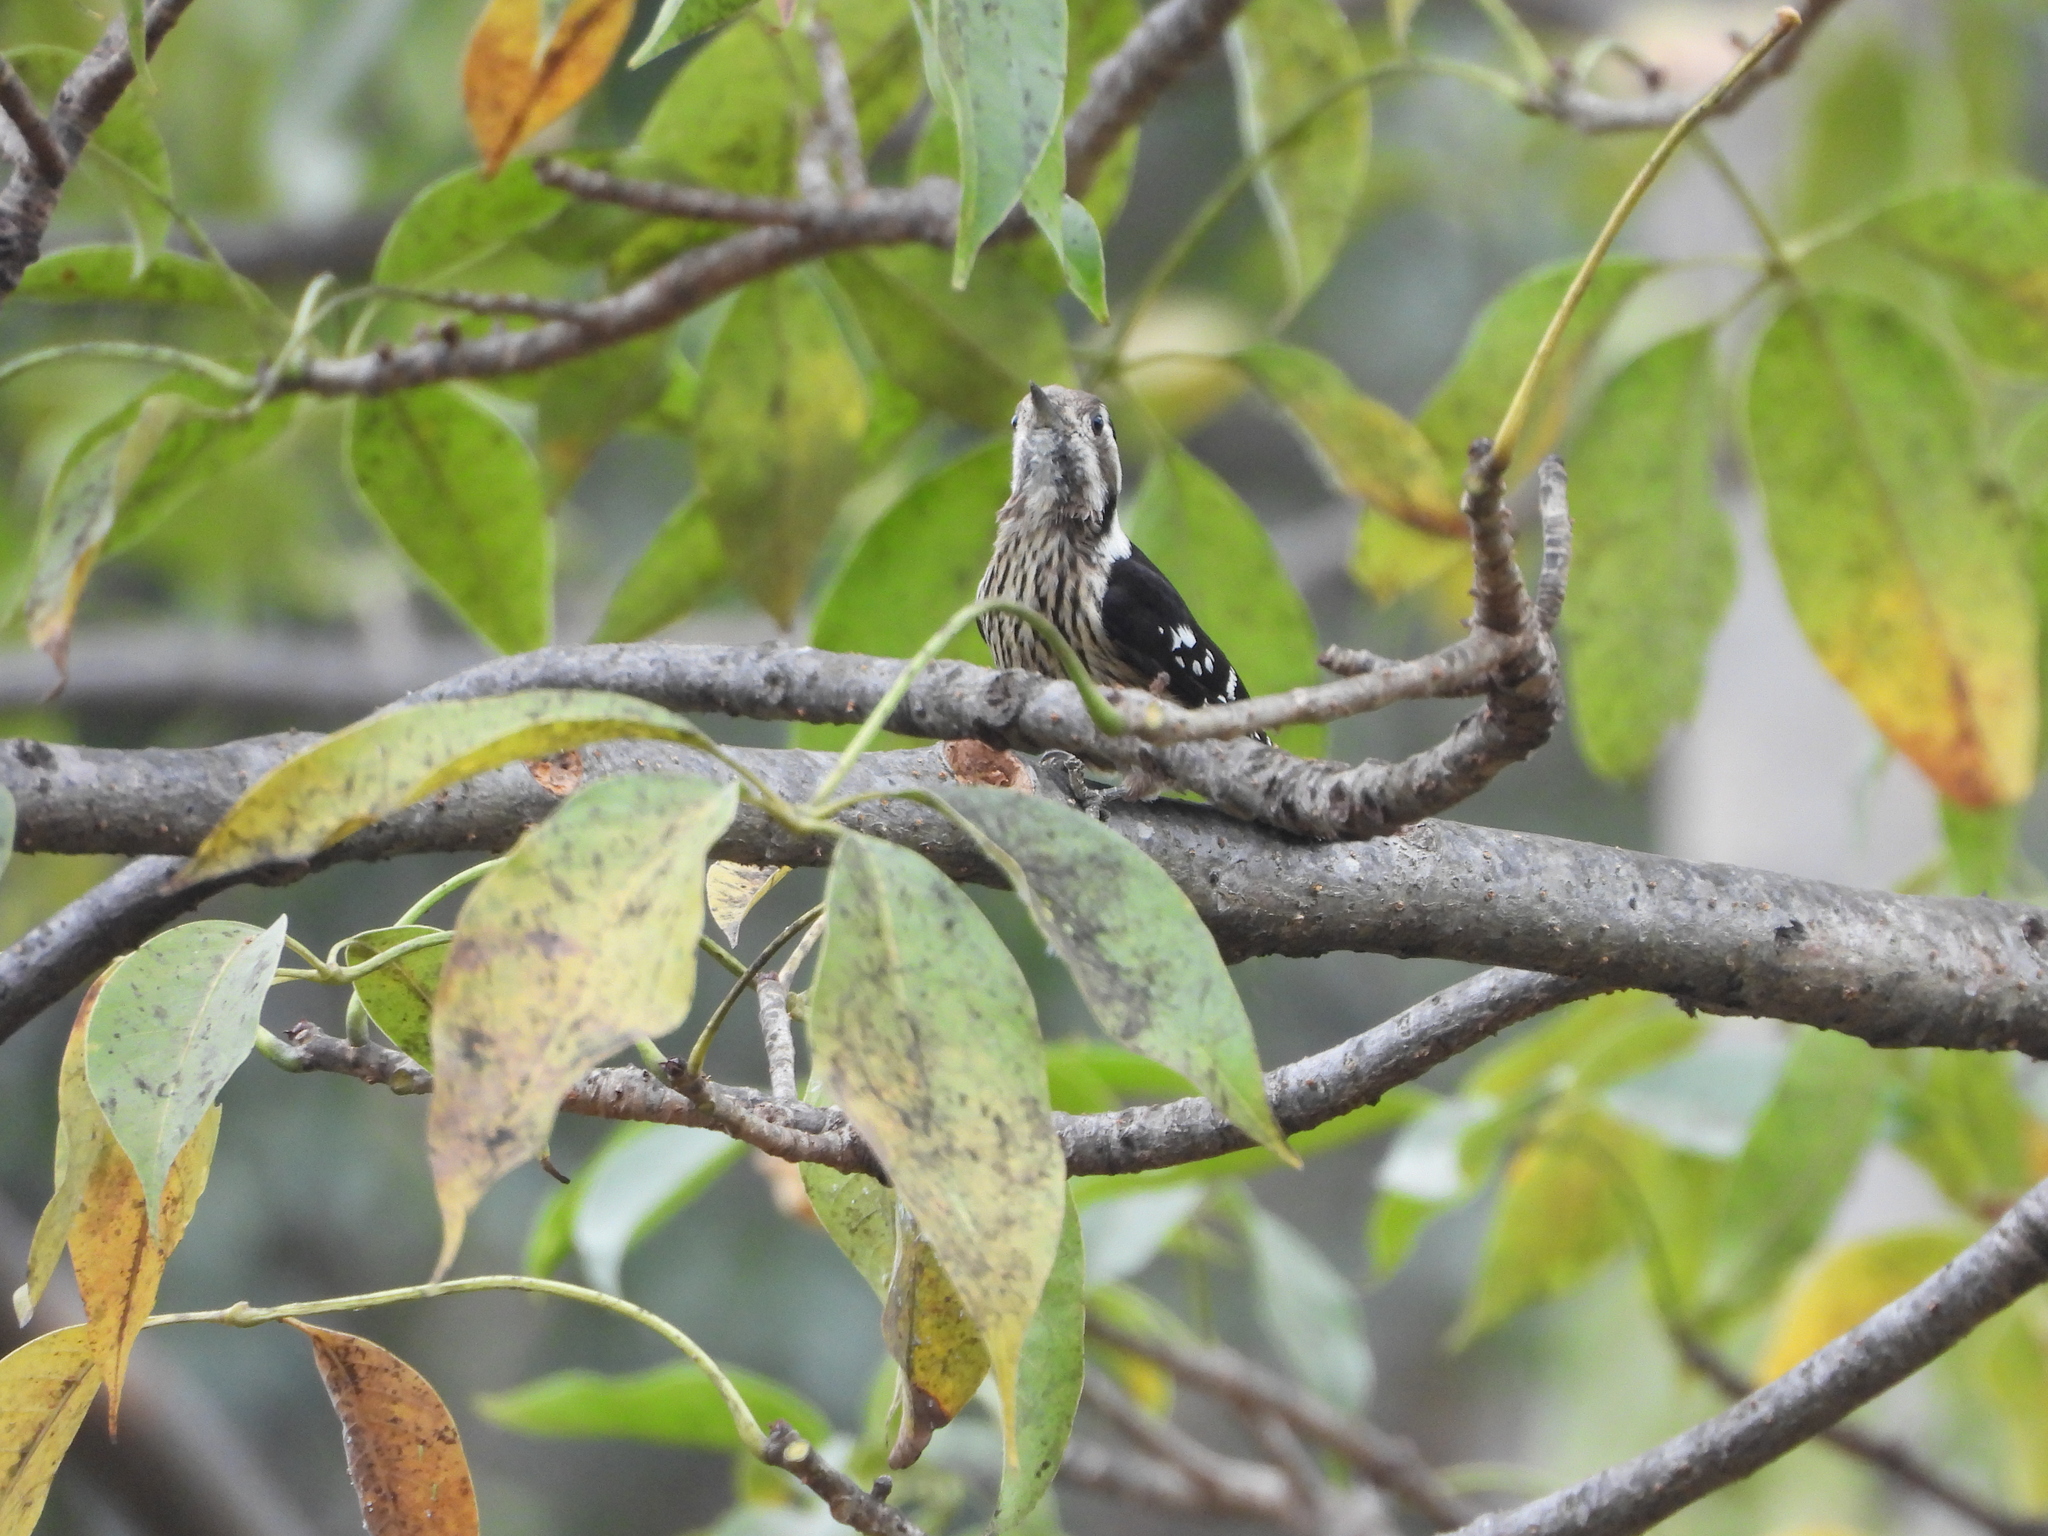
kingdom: Animalia
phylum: Chordata
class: Aves
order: Piciformes
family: Picidae
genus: Yungipicus
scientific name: Yungipicus canicapillus
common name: Grey-capped pygmy woodpecker
